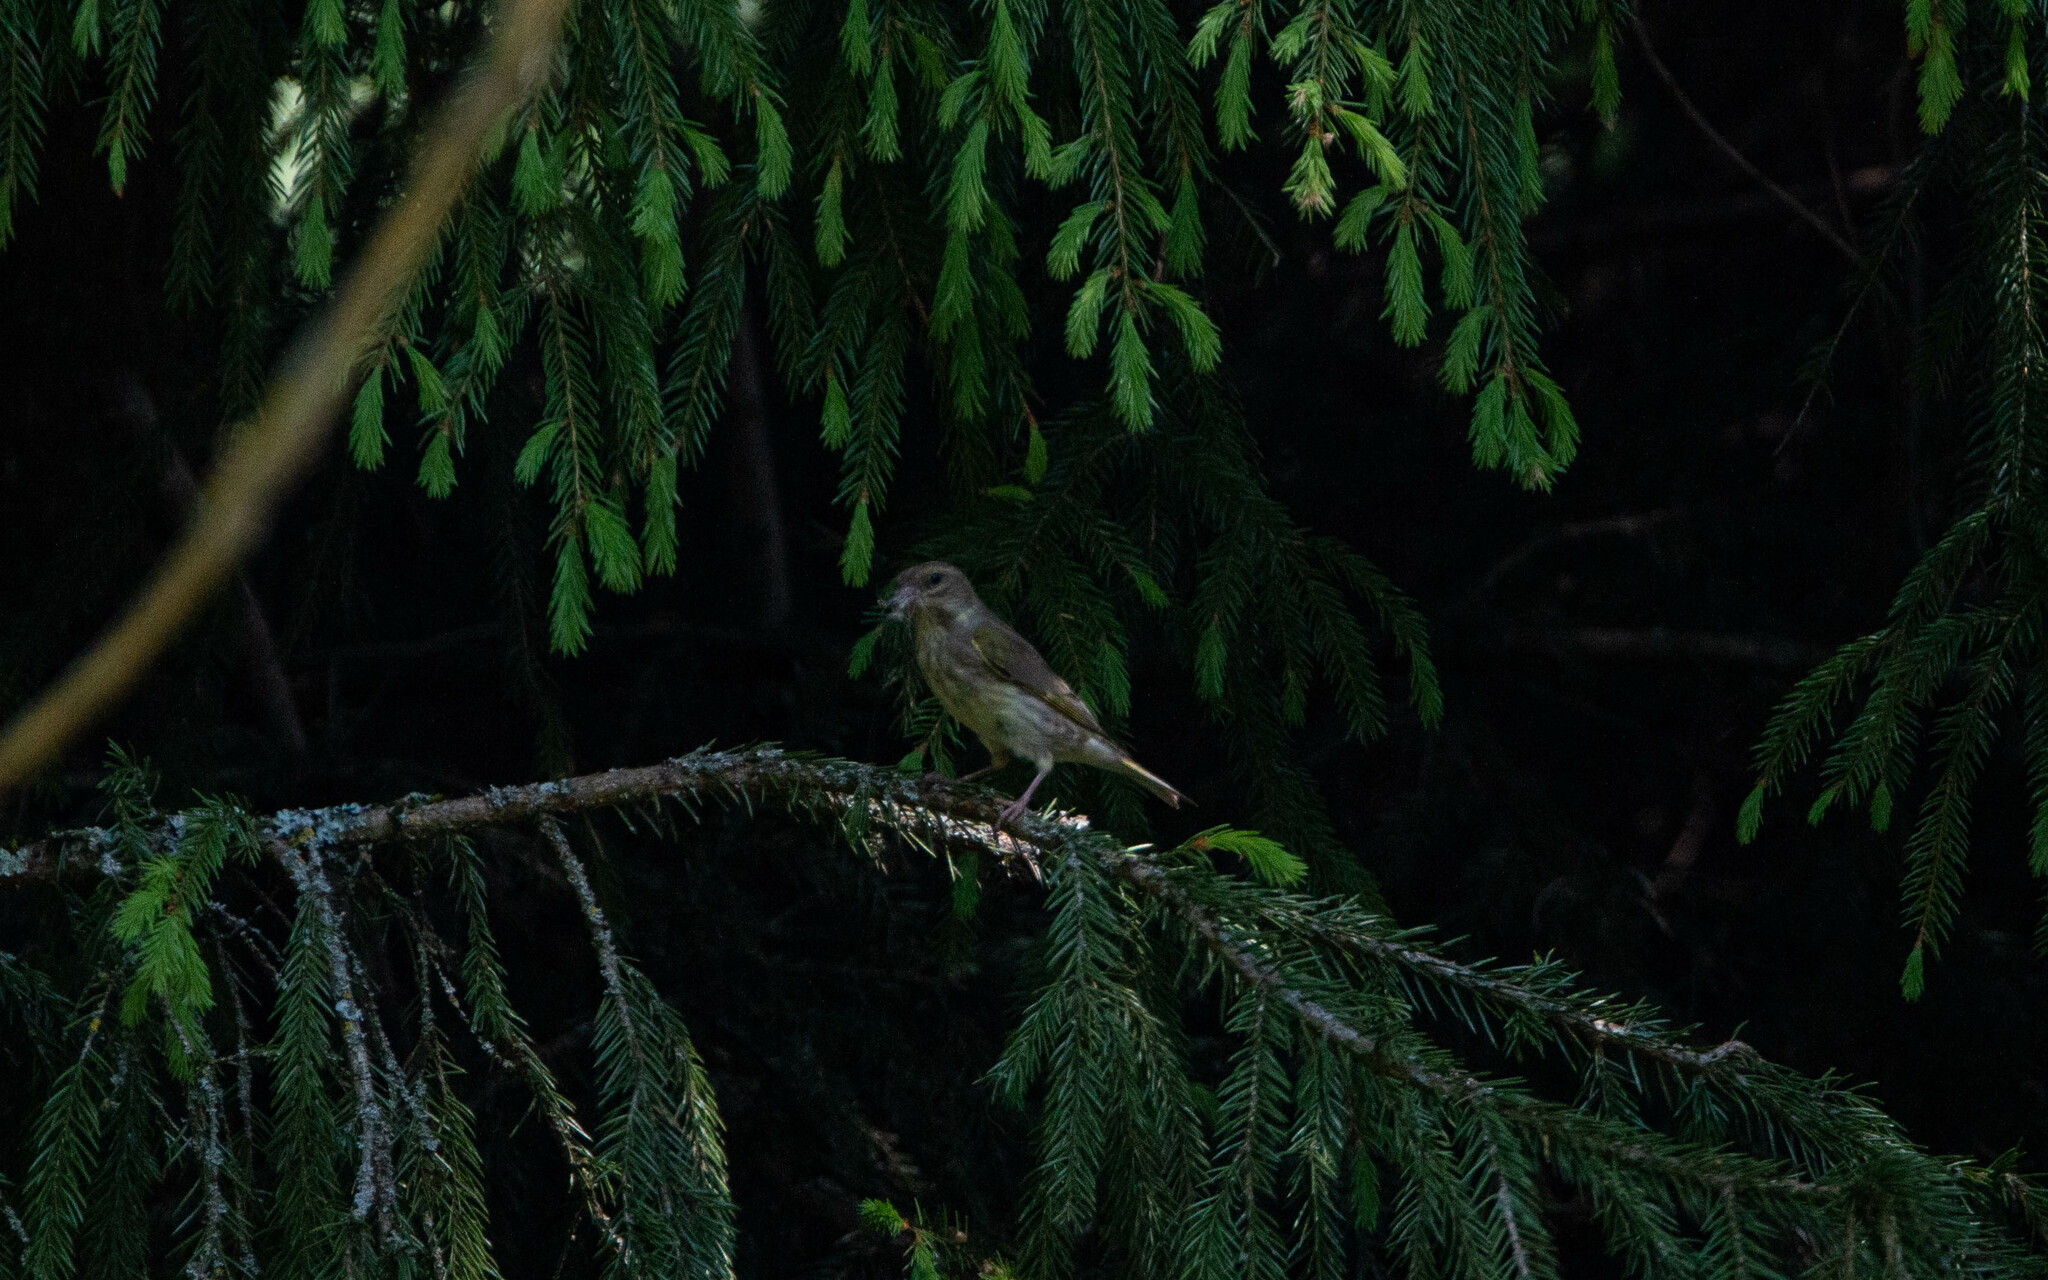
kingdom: Plantae
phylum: Tracheophyta
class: Liliopsida
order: Poales
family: Poaceae
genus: Chloris
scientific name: Chloris chloris
